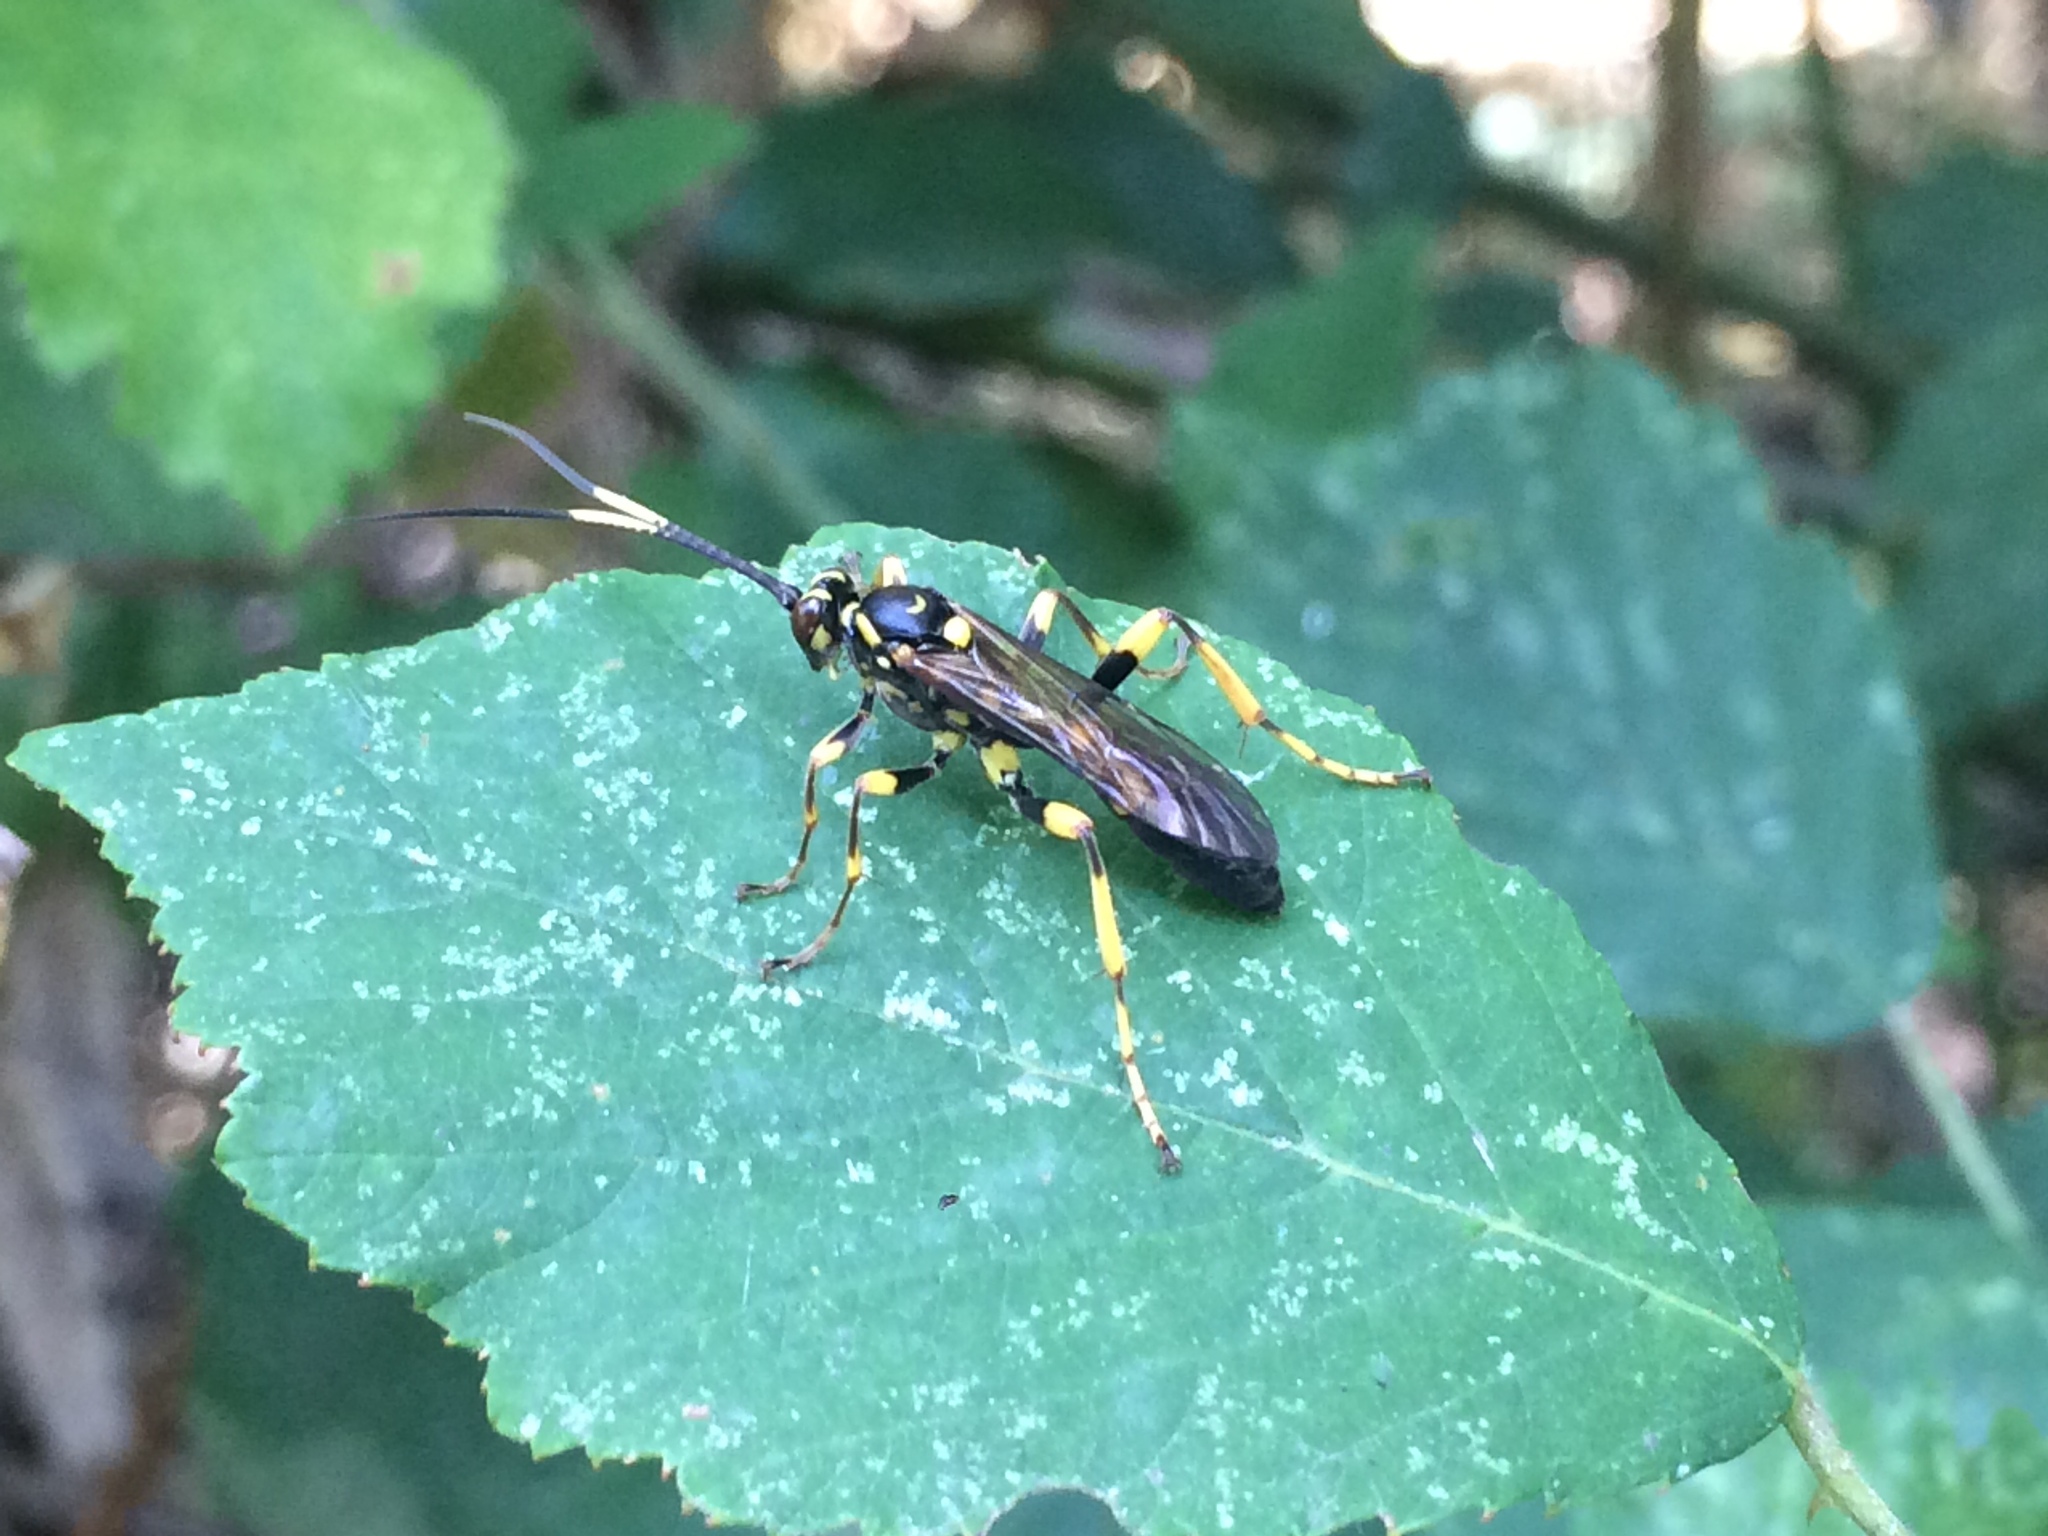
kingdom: Animalia
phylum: Arthropoda
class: Insecta
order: Hymenoptera
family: Ichneumonidae
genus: Hepiopelmus
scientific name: Hepiopelmus variegatorius
